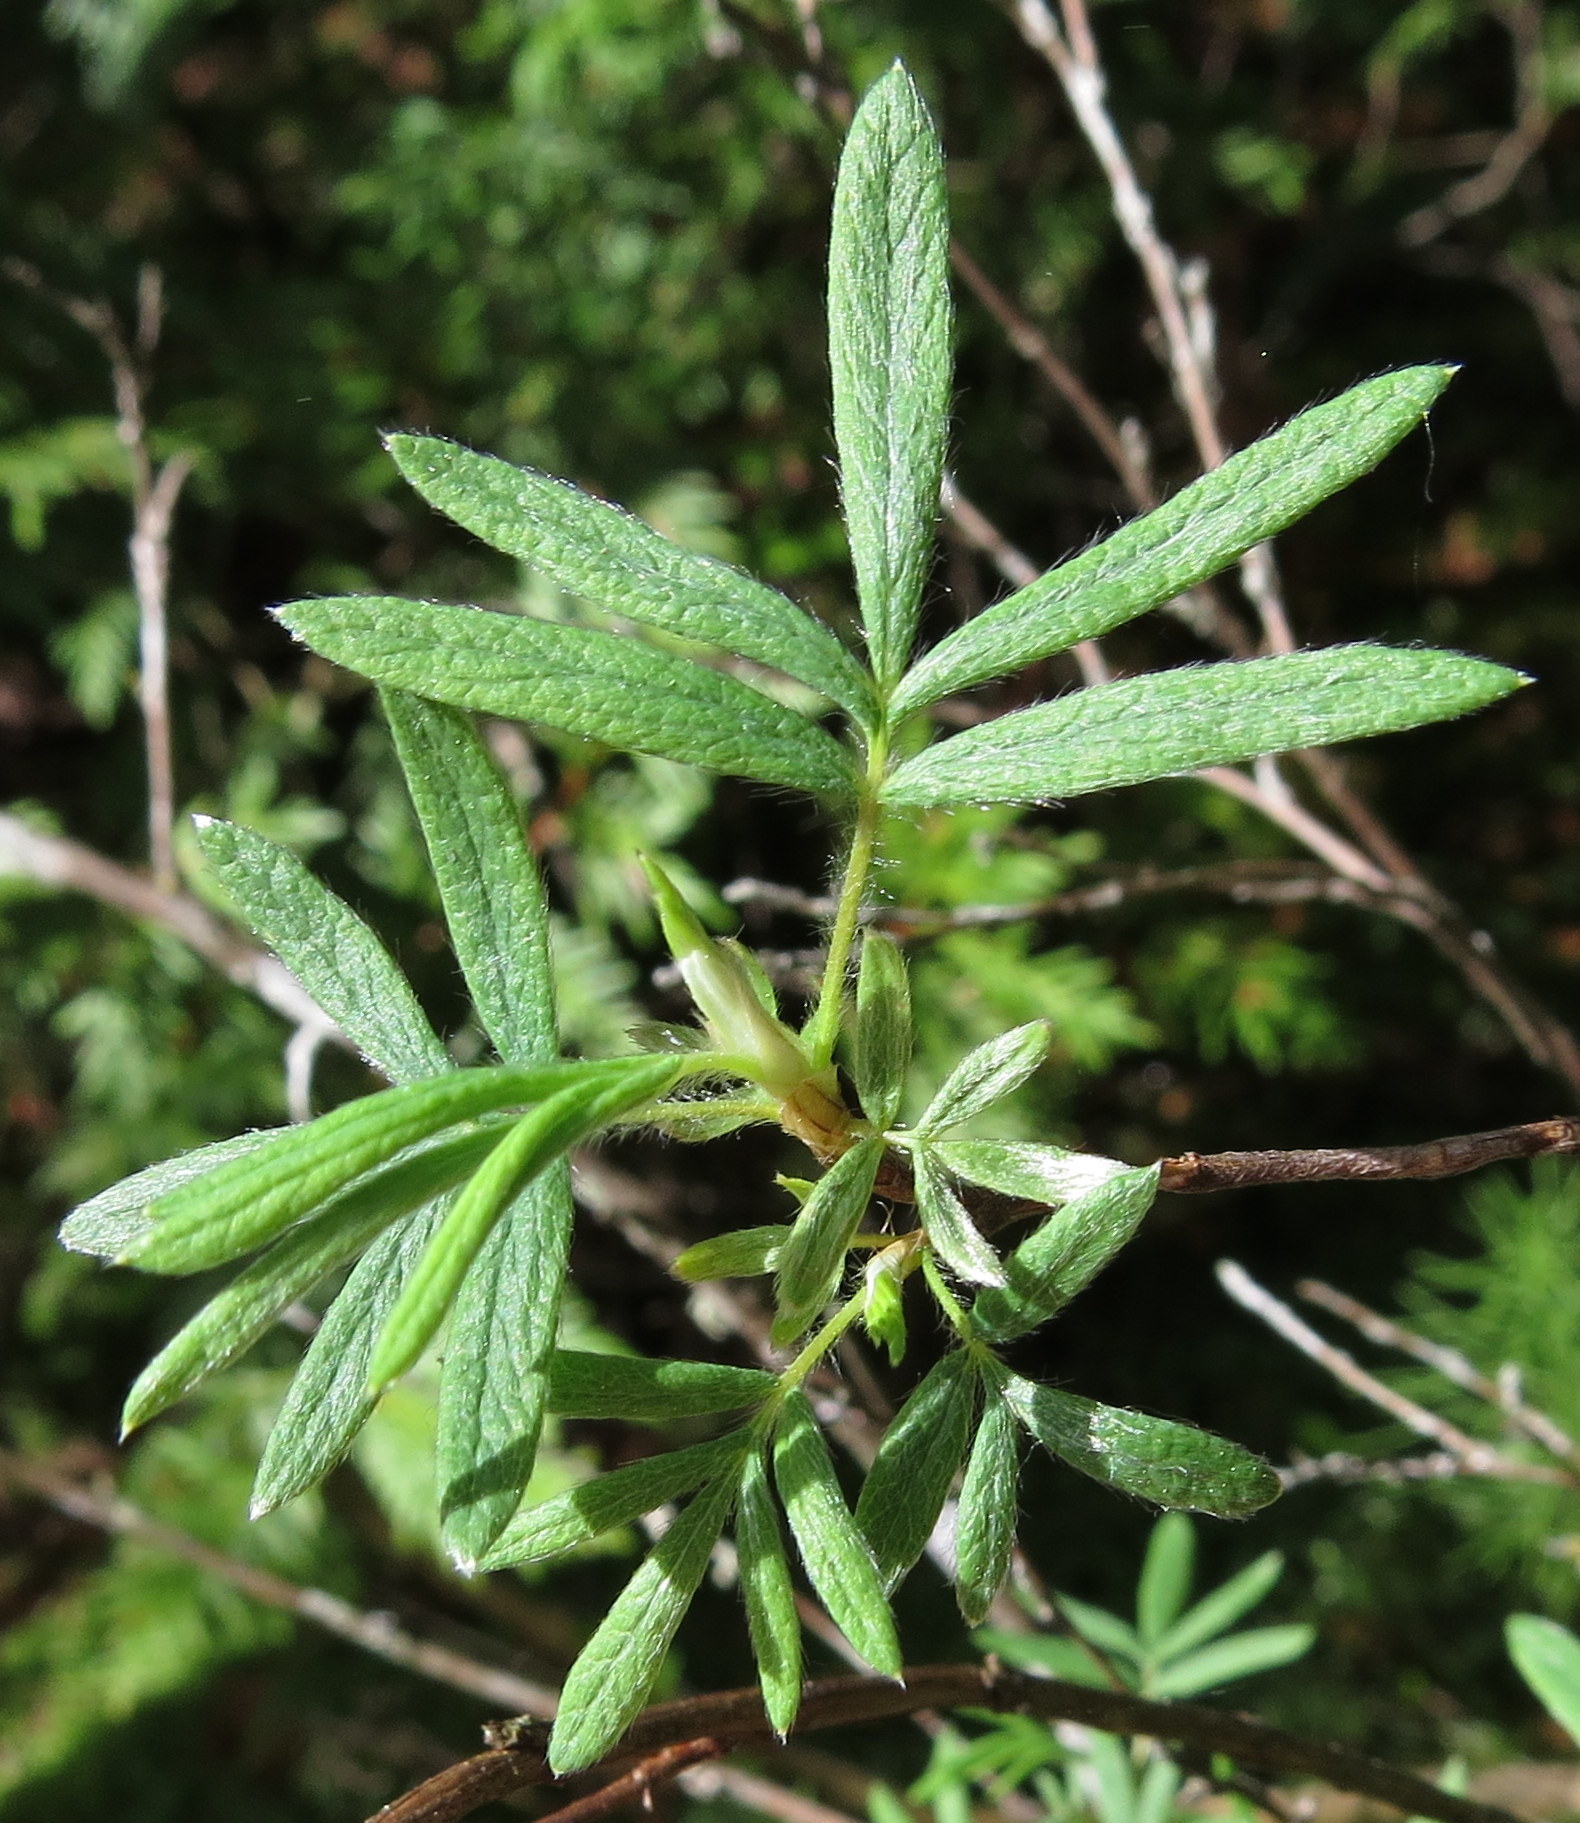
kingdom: Plantae
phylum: Tracheophyta
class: Magnoliopsida
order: Rosales
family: Rosaceae
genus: Dasiphora
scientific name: Dasiphora fruticosa
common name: Shrubby cinquefoil
